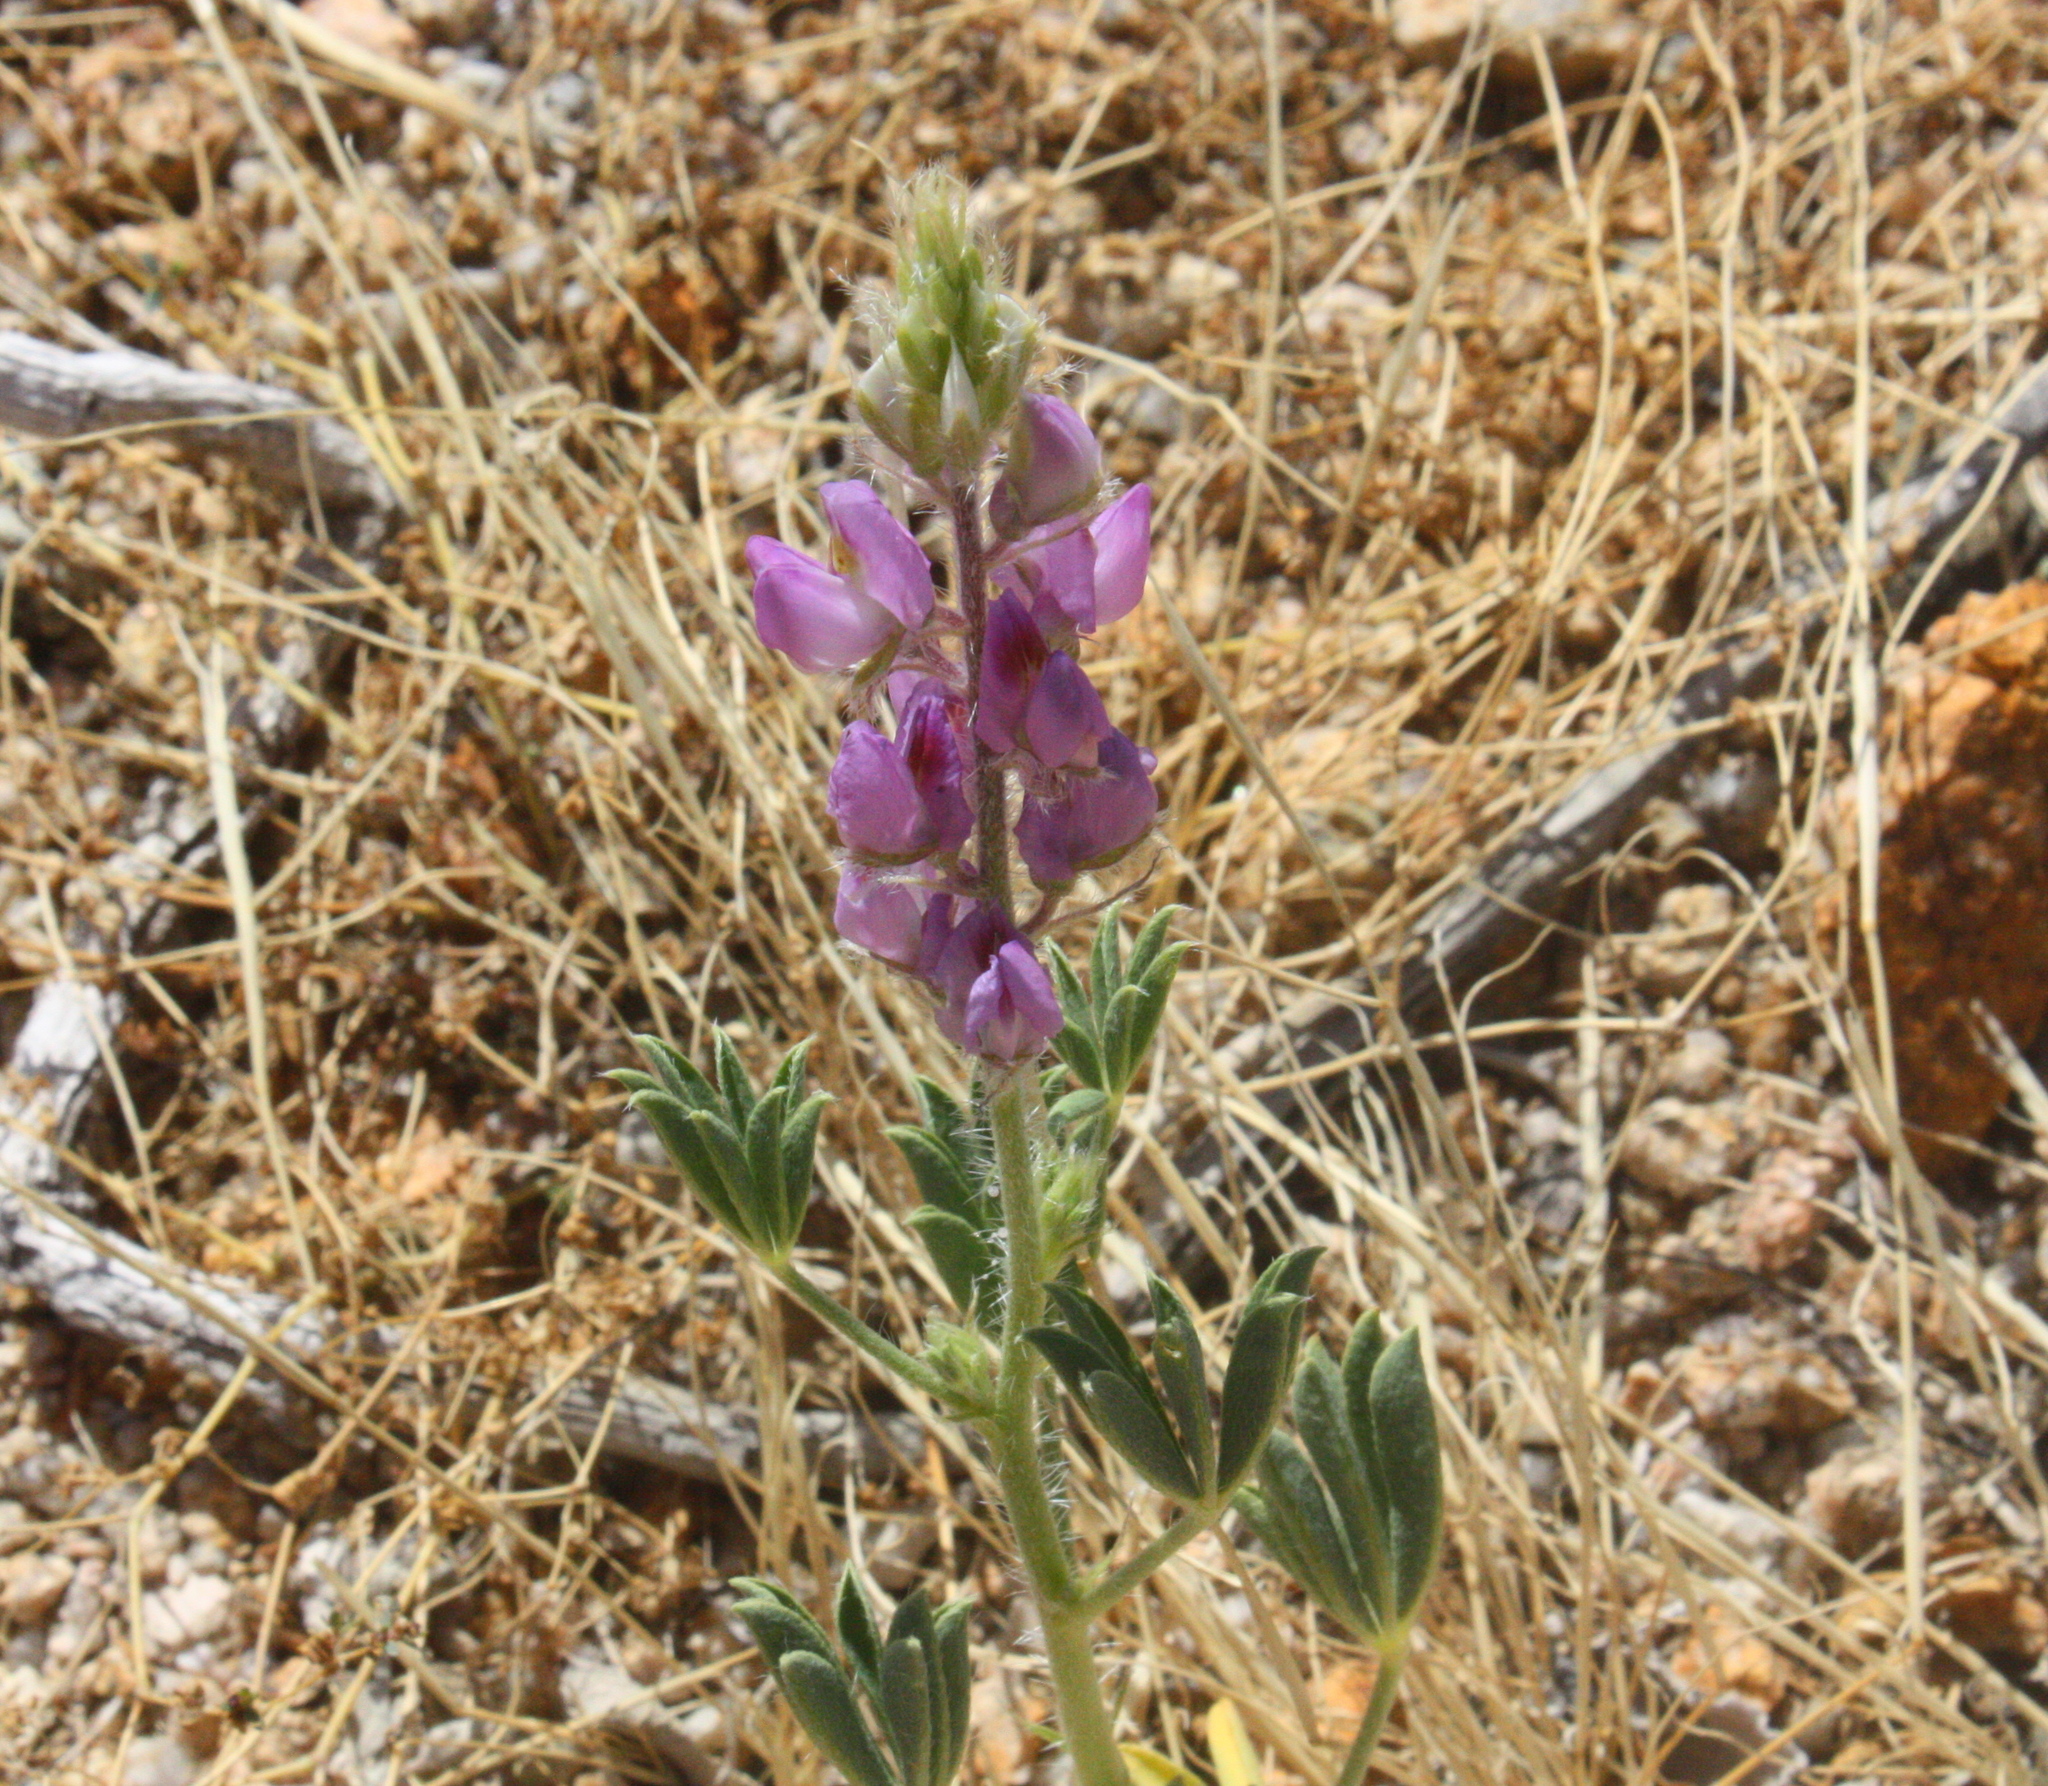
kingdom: Plantae
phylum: Tracheophyta
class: Magnoliopsida
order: Fabales
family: Fabaceae
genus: Lupinus
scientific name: Lupinus arizonicus
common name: Arizona lupine
